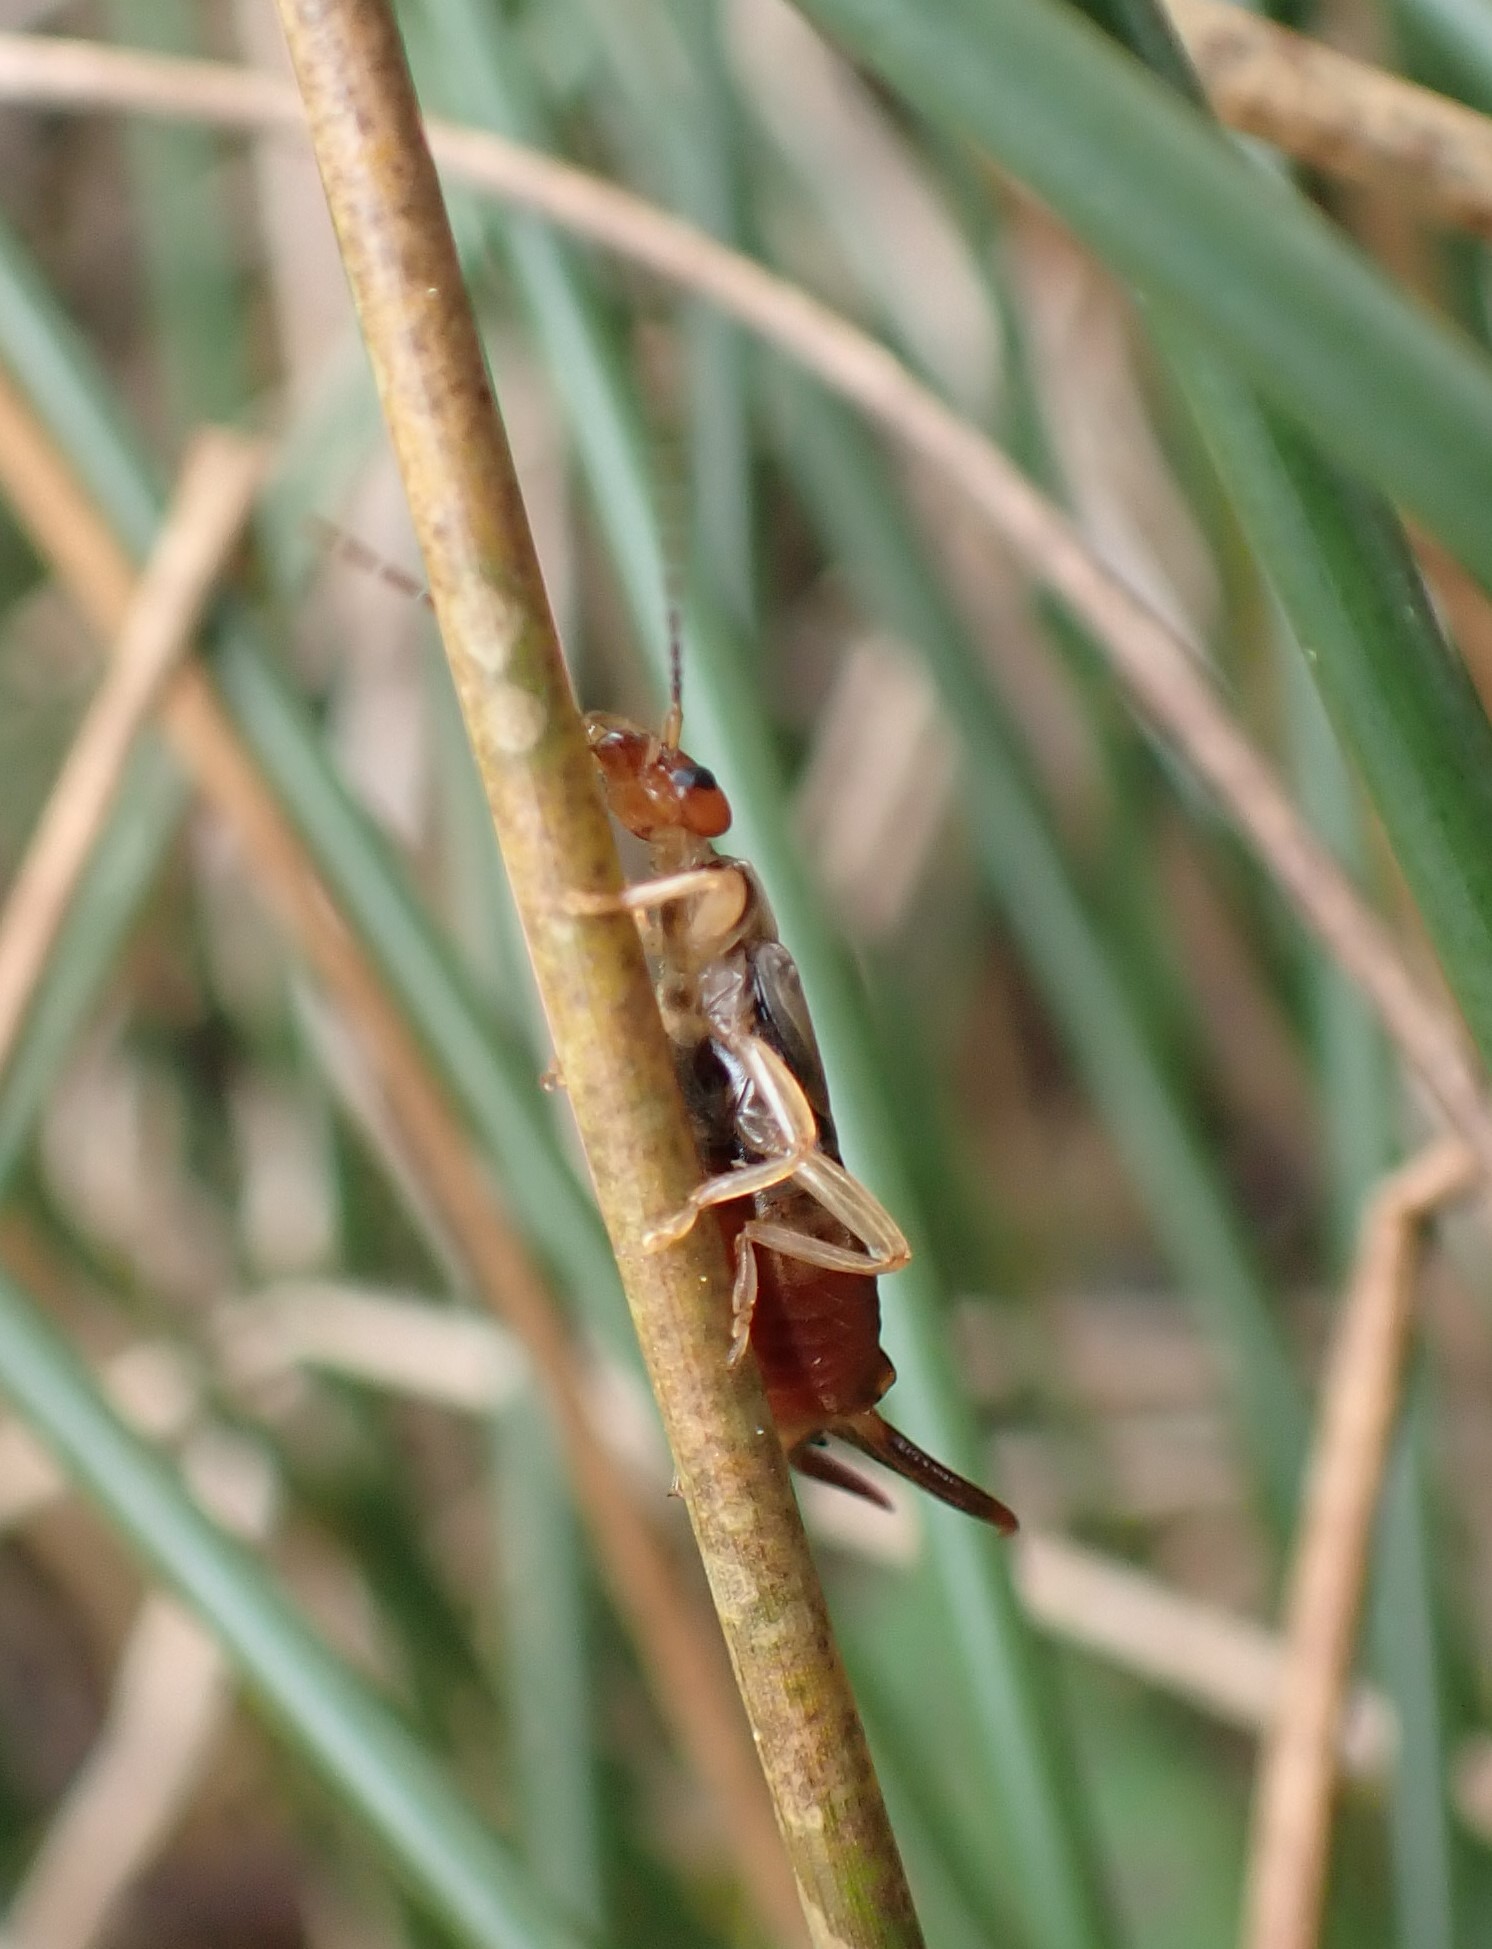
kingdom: Animalia
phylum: Arthropoda
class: Insecta
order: Dermaptera
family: Forficulidae
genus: Forficula
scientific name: Forficula
